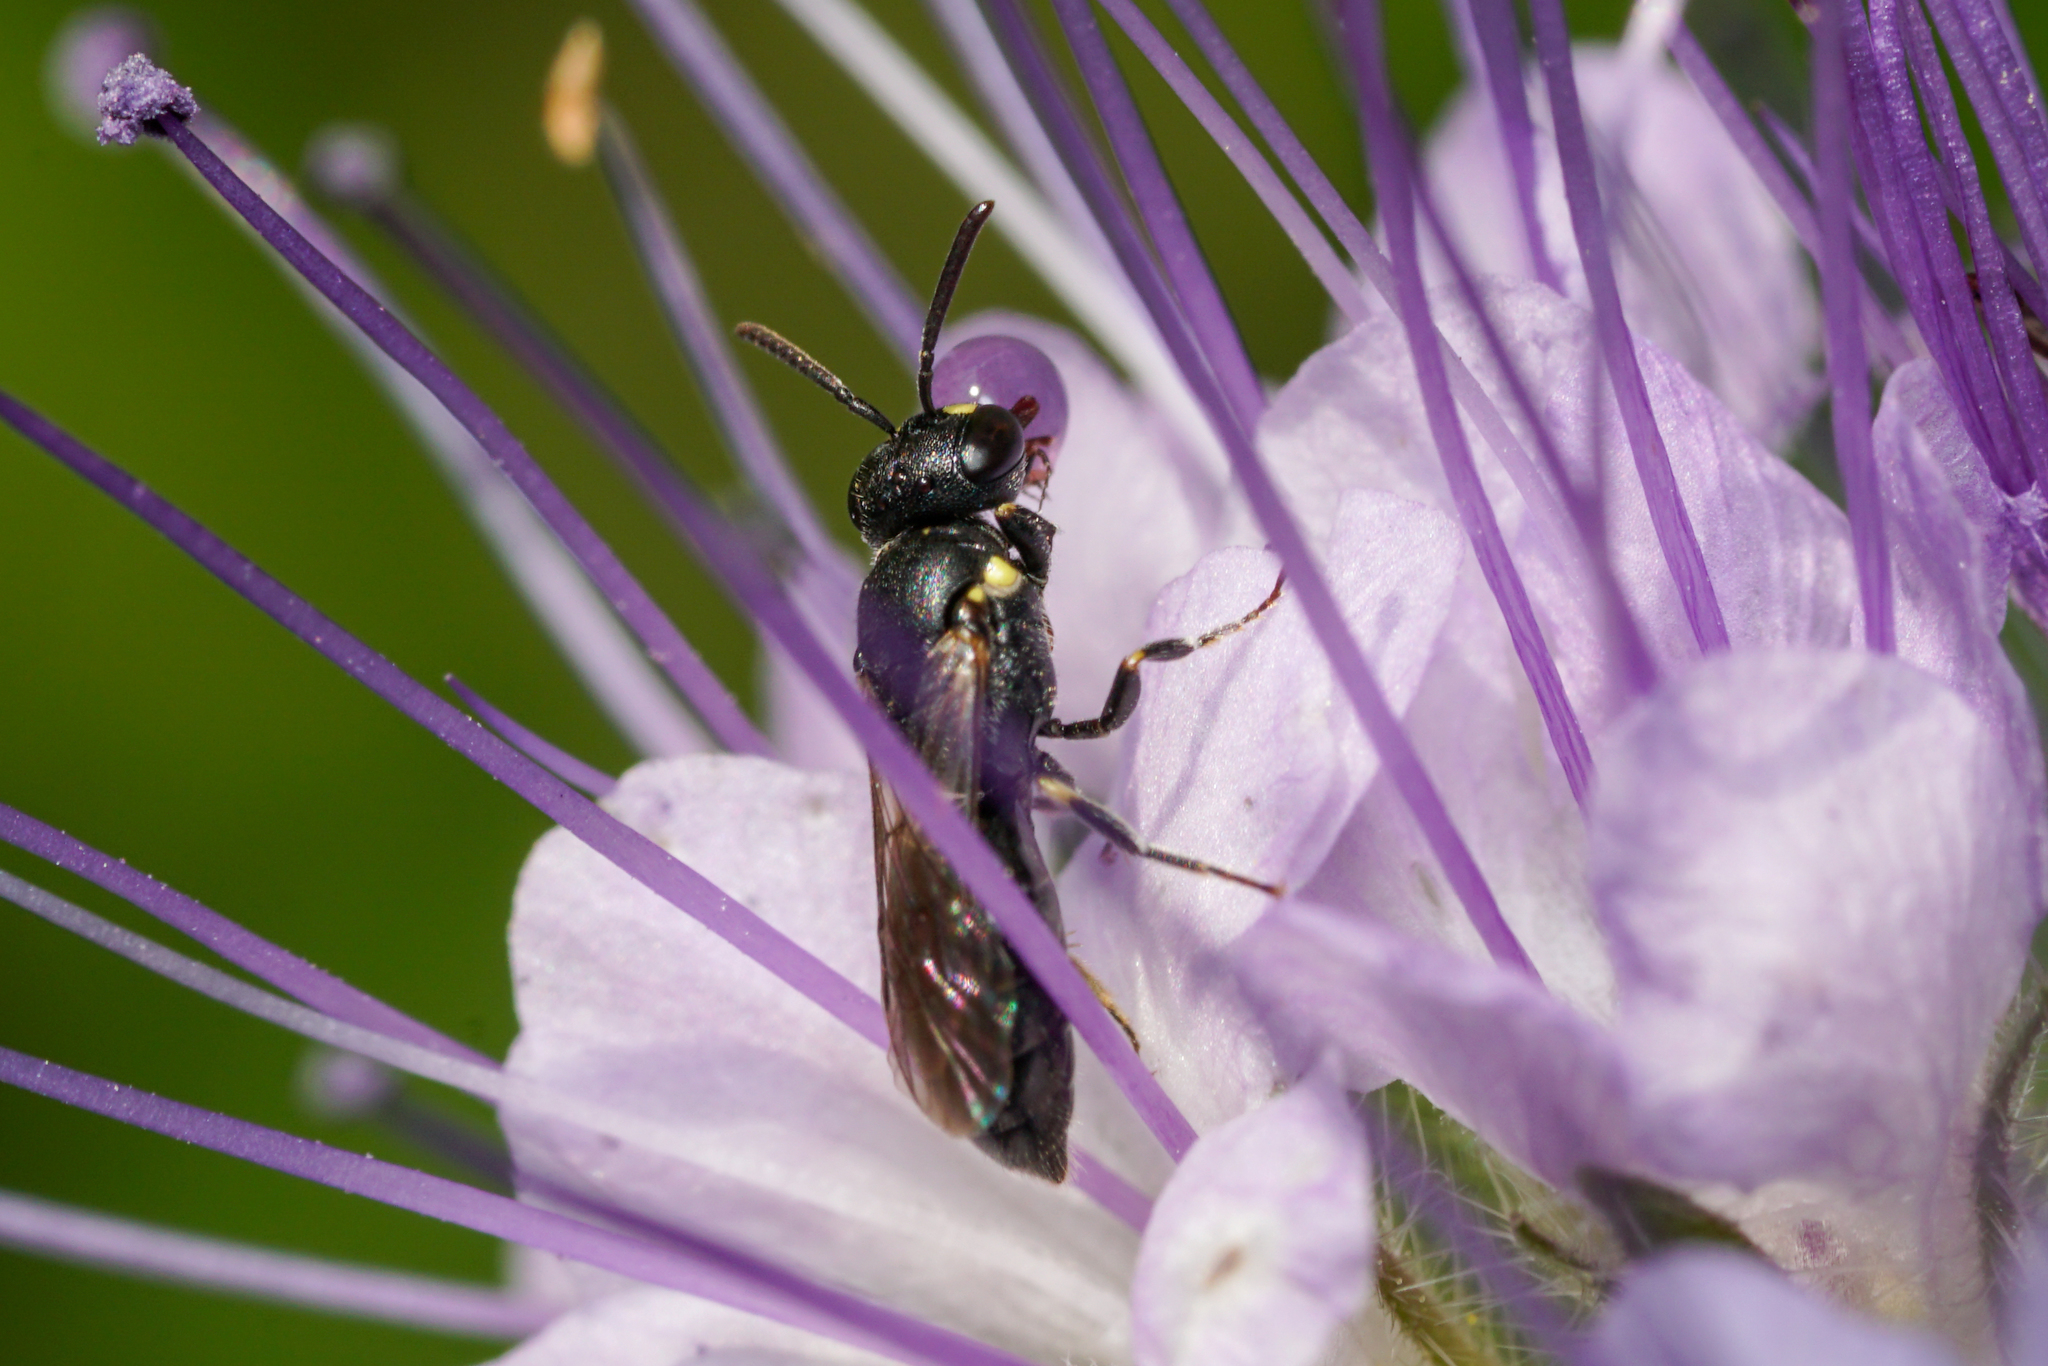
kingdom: Animalia
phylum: Arthropoda
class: Insecta
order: Hymenoptera
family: Colletidae
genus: Hylaeus
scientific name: Hylaeus
